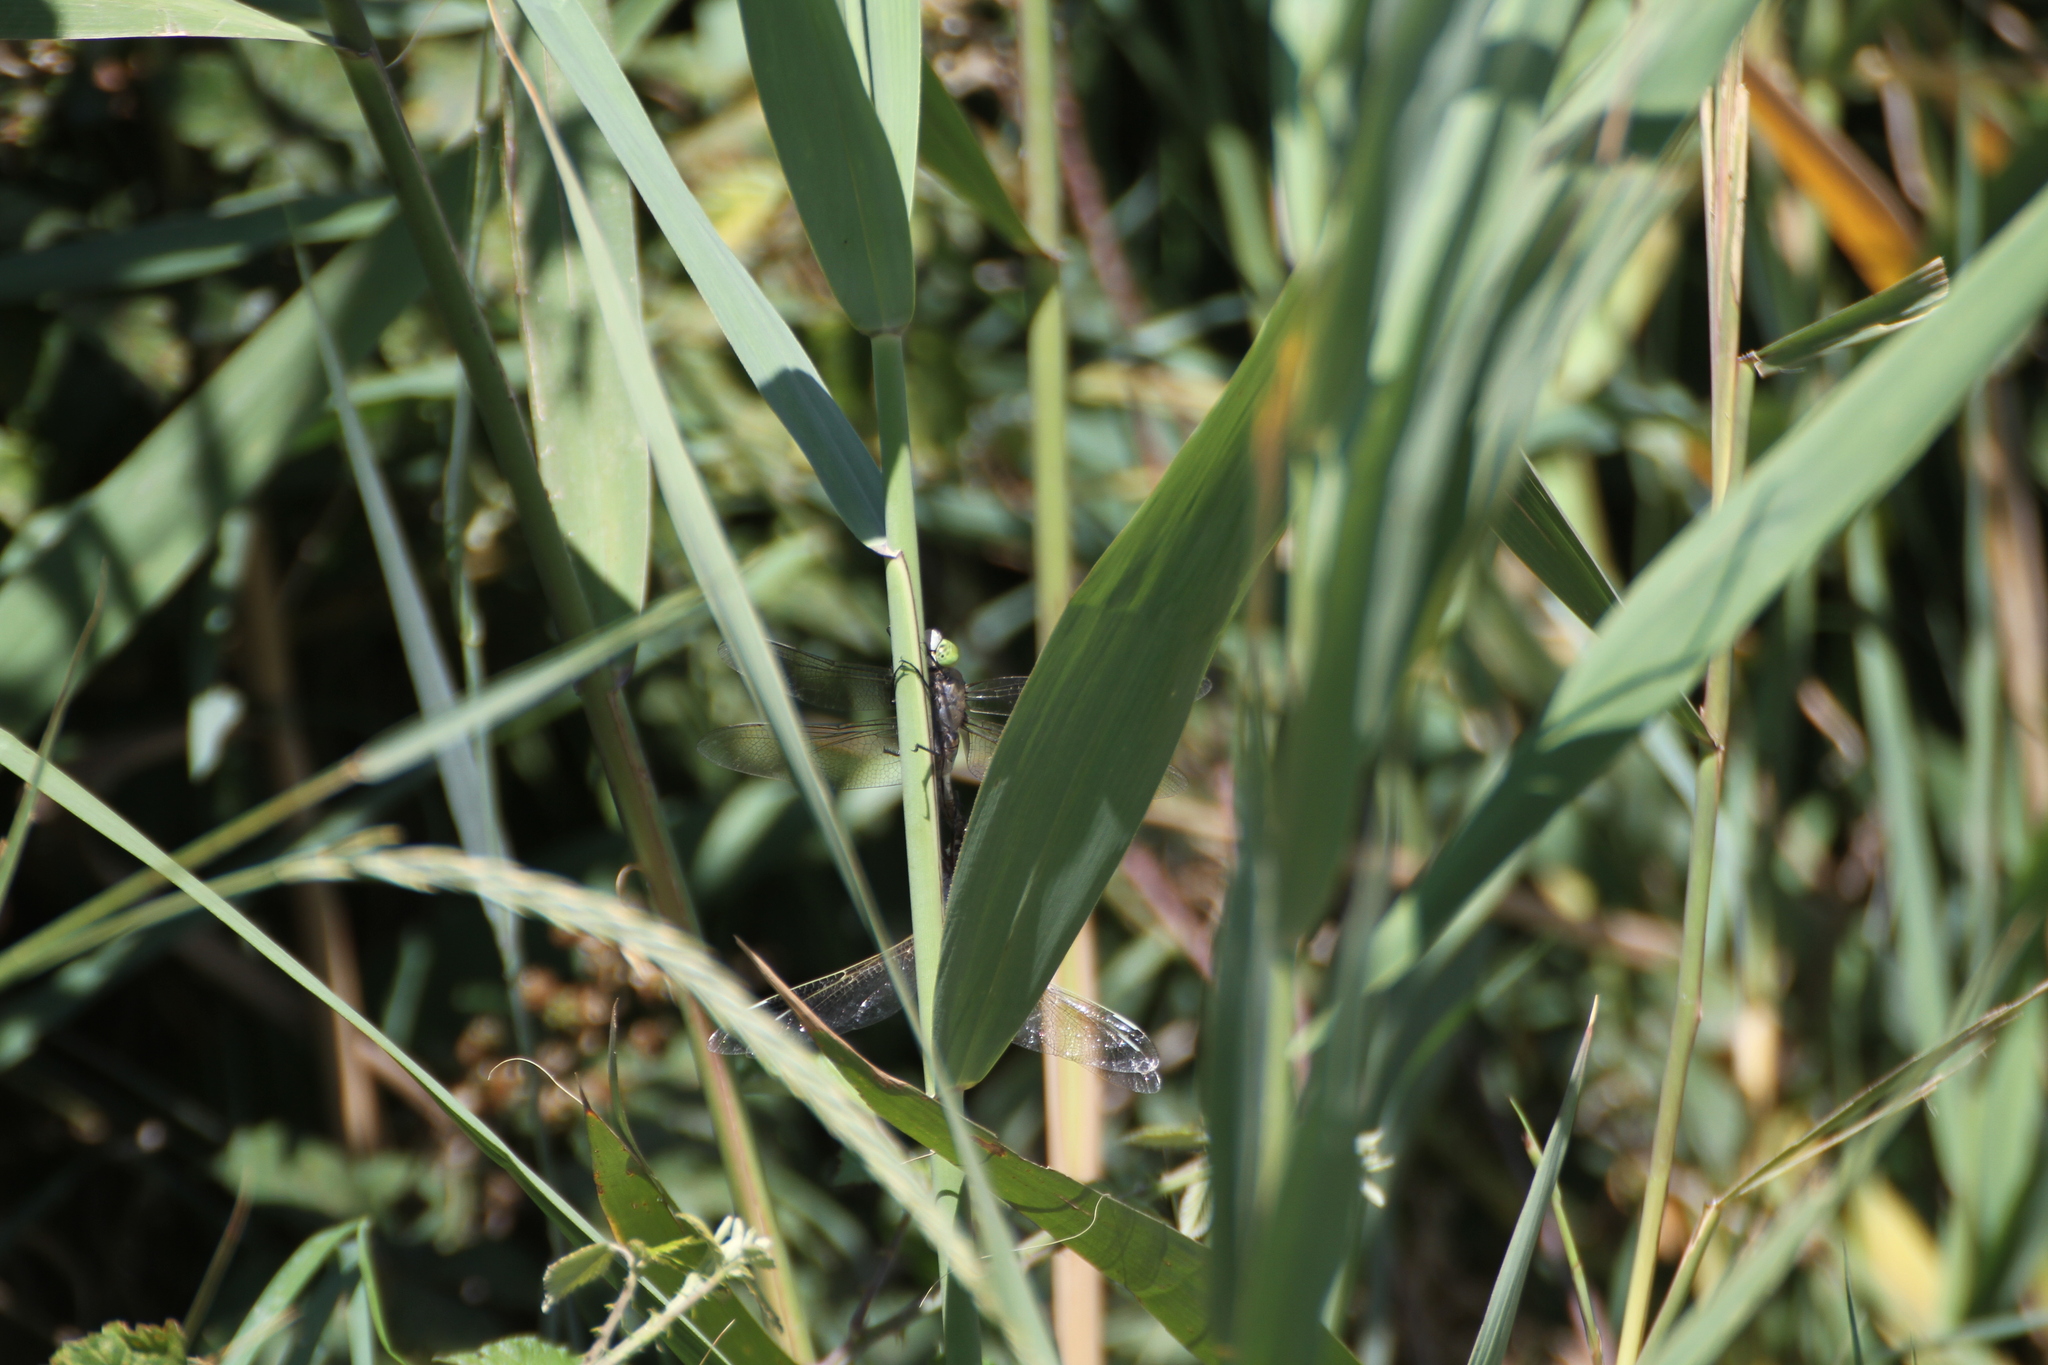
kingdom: Animalia
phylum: Arthropoda
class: Insecta
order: Odonata
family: Aeshnidae
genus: Anax
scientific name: Anax parthenope
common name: Lesser emperor
